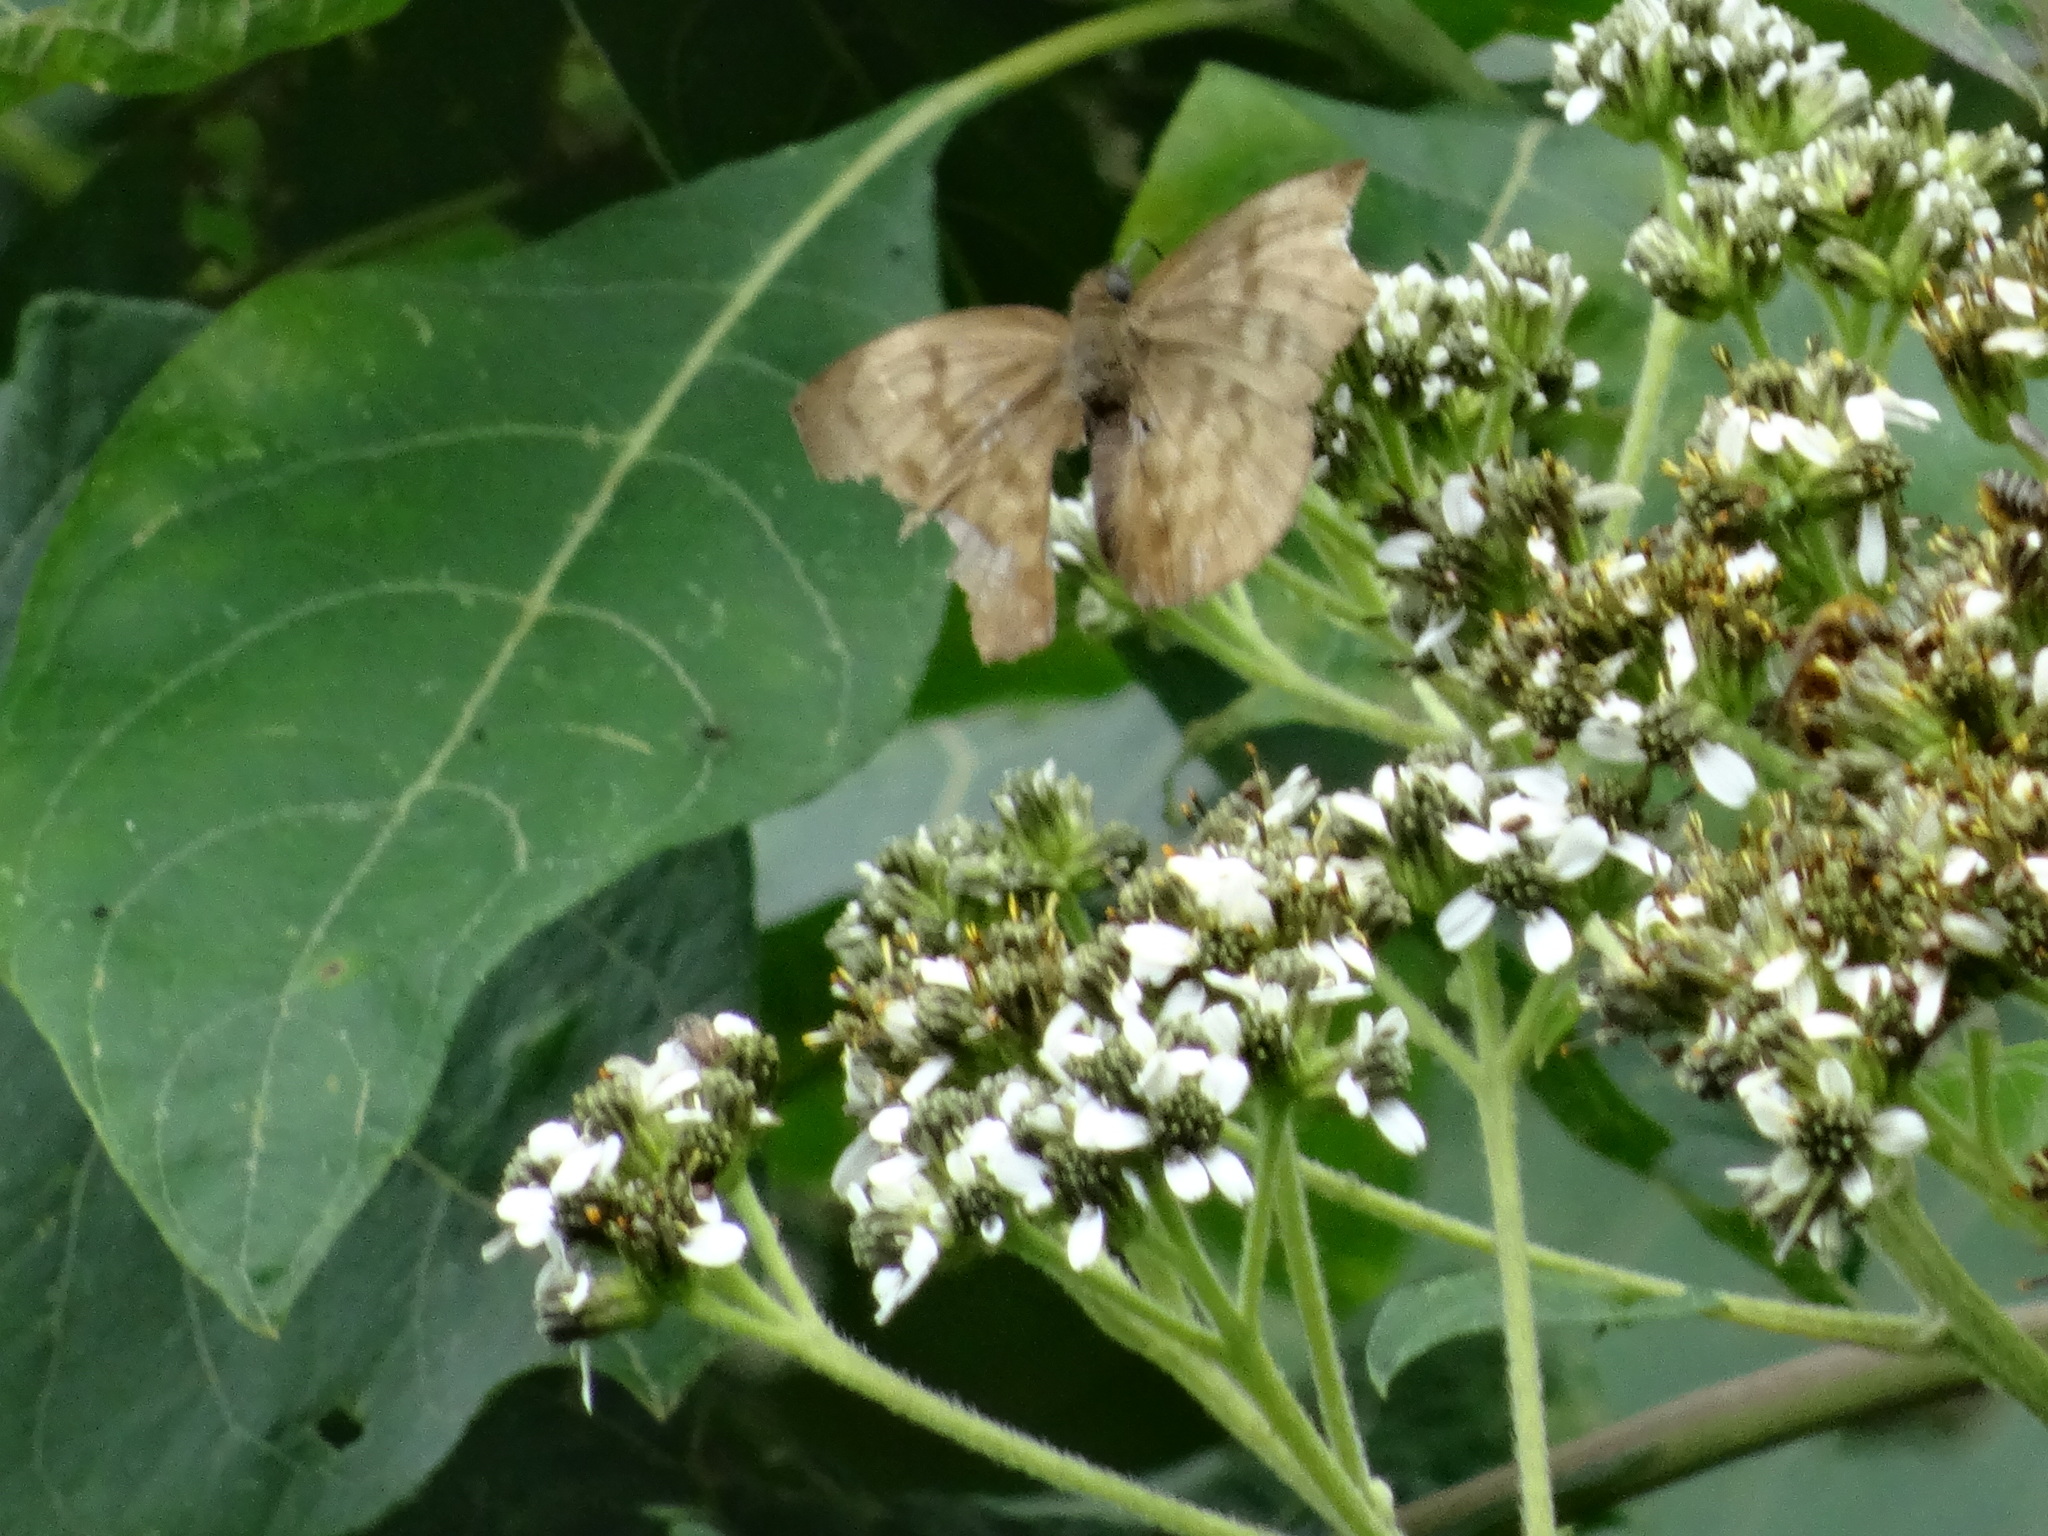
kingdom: Animalia
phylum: Arthropoda
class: Insecta
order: Lepidoptera
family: Hesperiidae
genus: Achlyodes
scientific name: Achlyodes pallida
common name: Pale sicklewing
